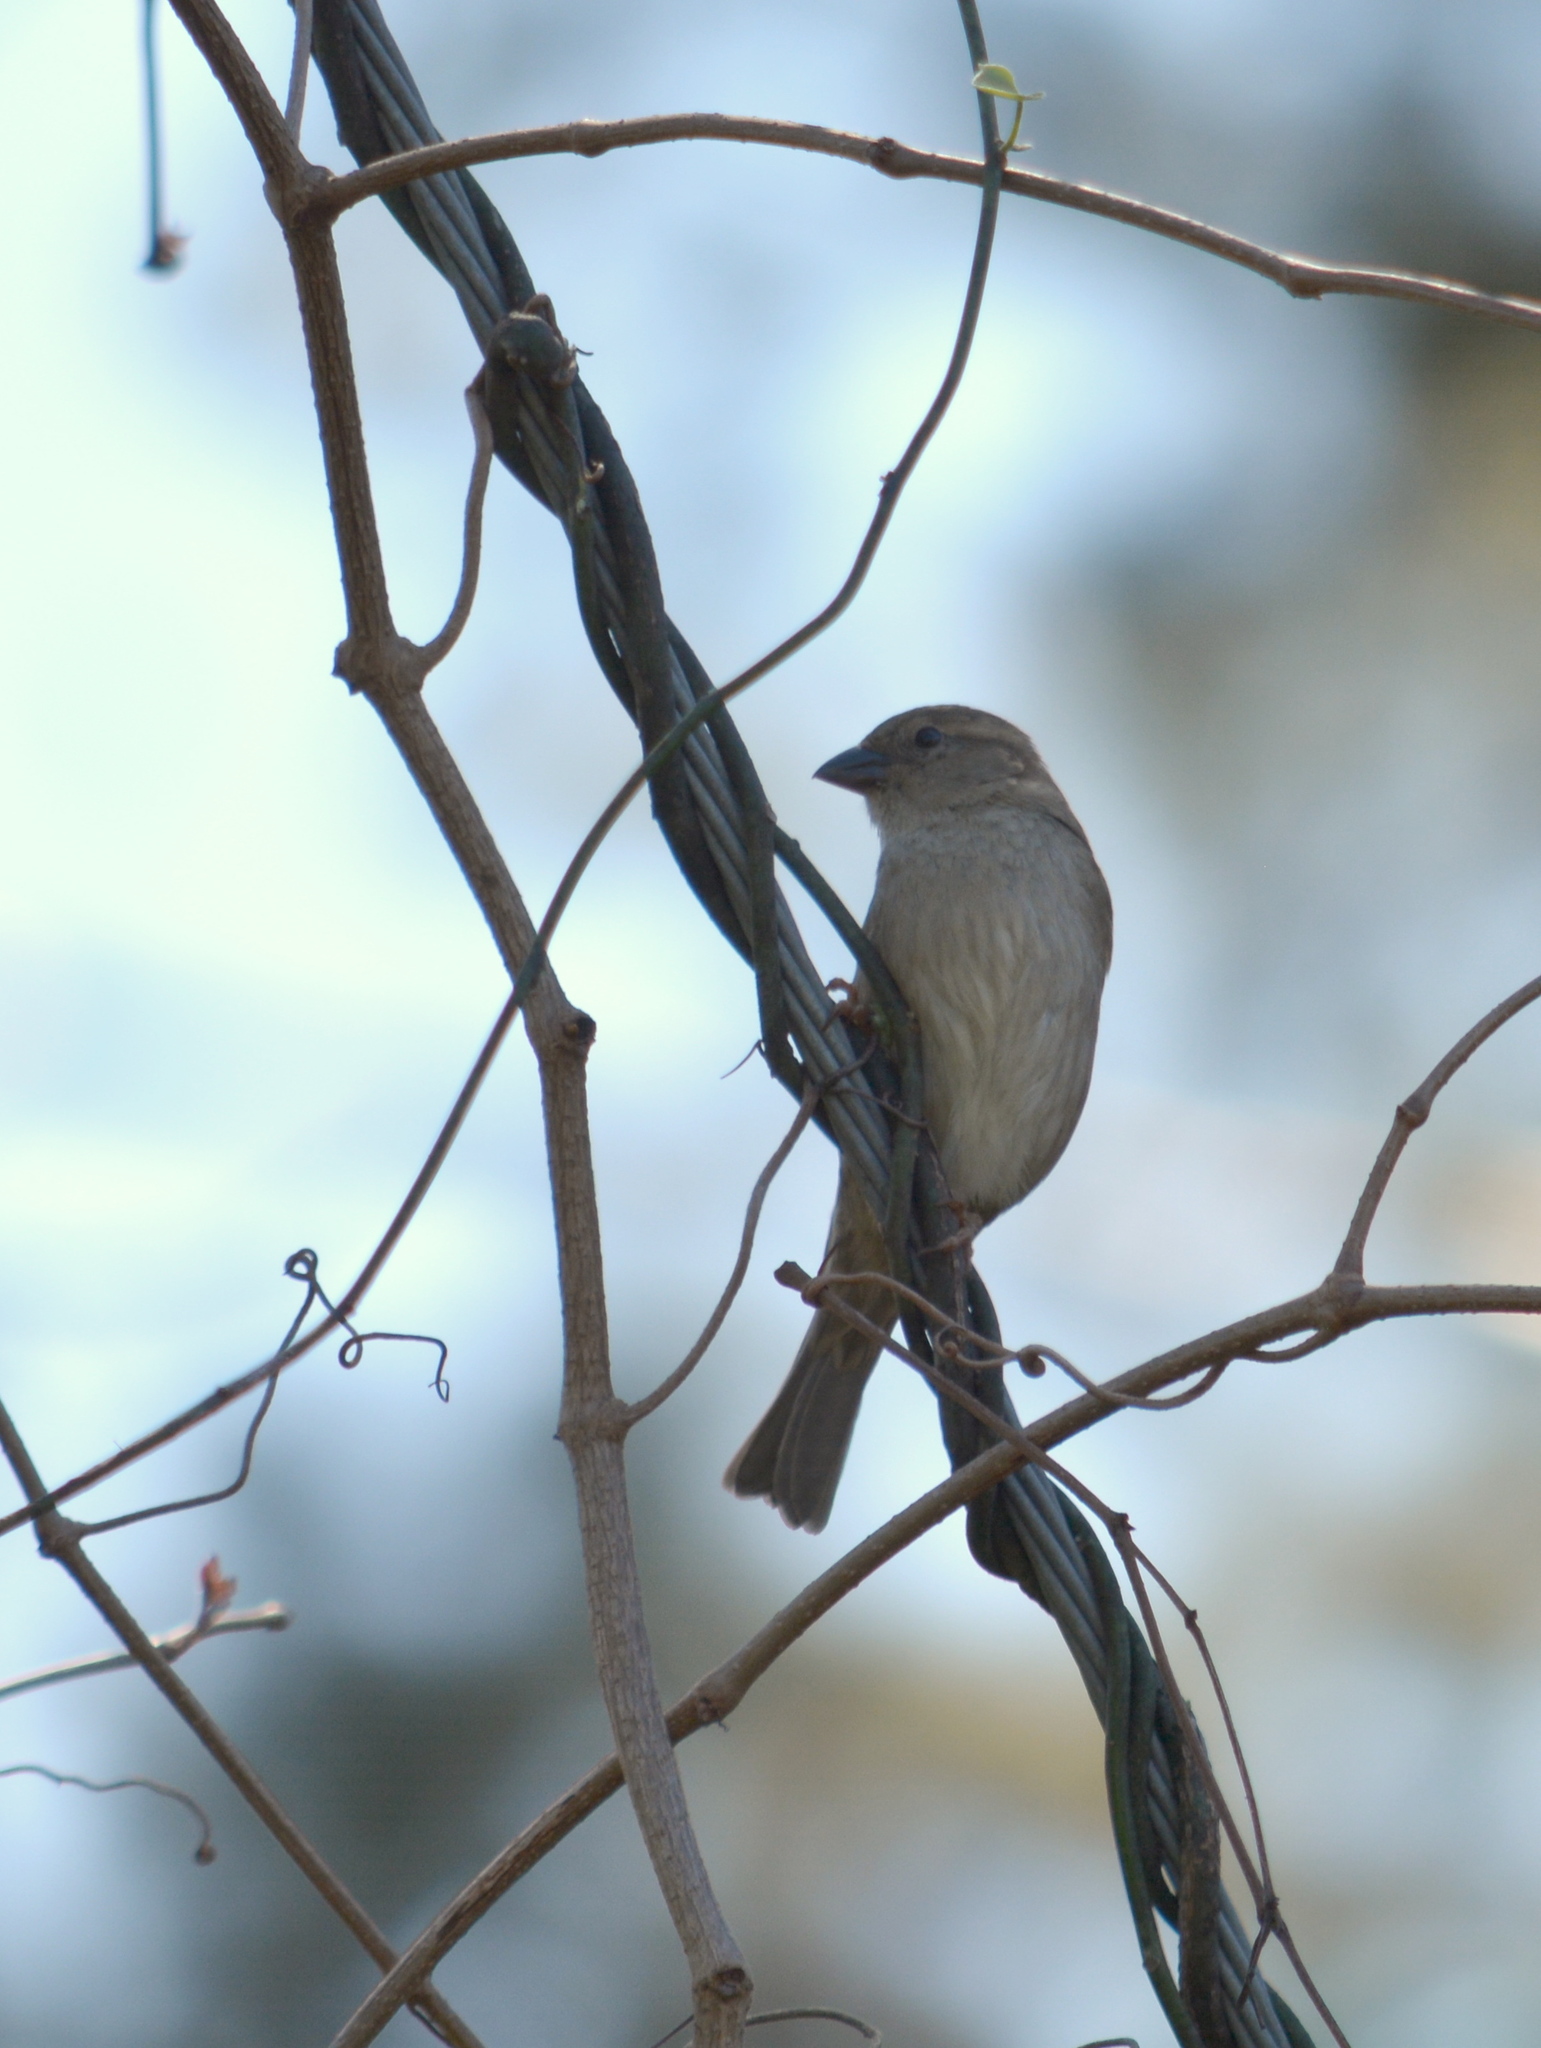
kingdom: Animalia
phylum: Chordata
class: Aves
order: Passeriformes
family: Passeridae
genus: Passer
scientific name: Passer domesticus
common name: House sparrow
